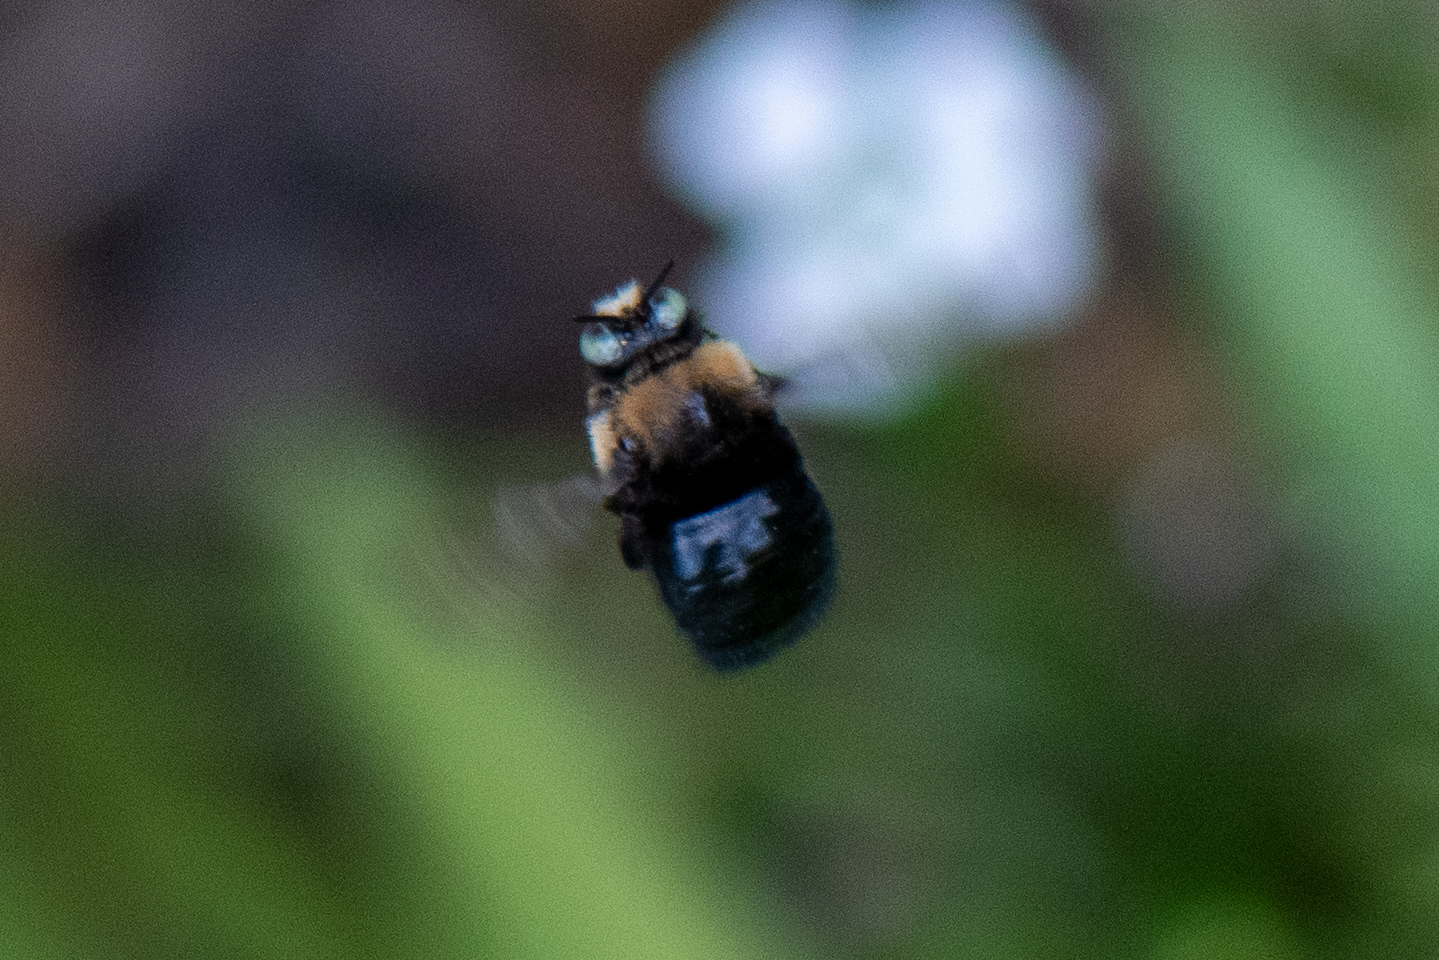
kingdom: Animalia
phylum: Arthropoda
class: Insecta
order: Hymenoptera
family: Apidae
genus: Xylocopa
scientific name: Xylocopa tabaniformis
